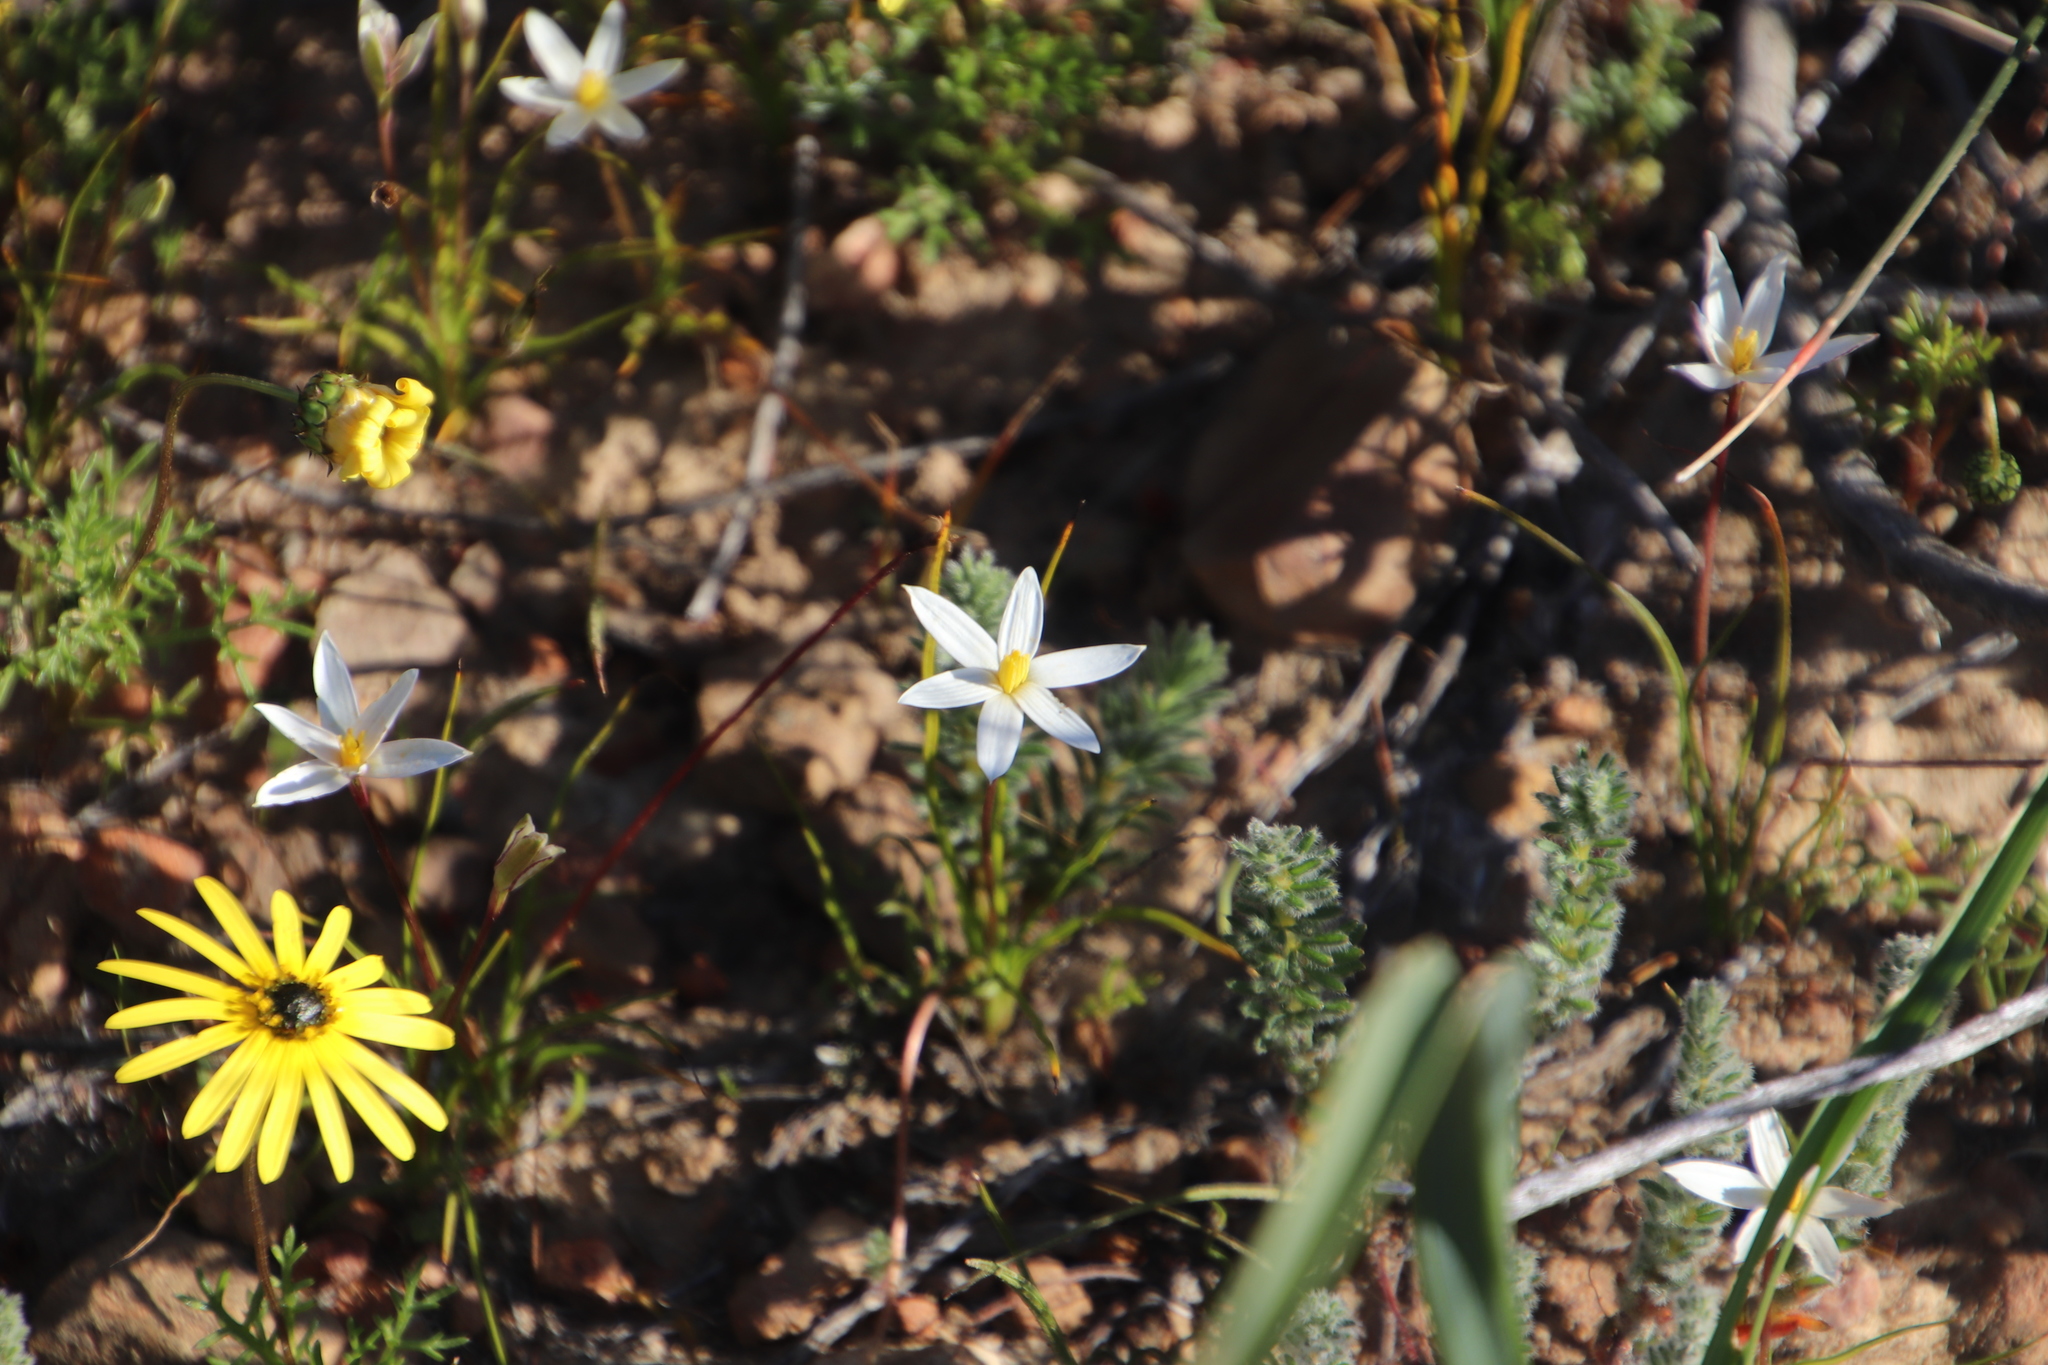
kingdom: Plantae
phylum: Tracheophyta
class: Liliopsida
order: Asparagales
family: Hypoxidaceae
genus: Pauridia
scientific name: Pauridia serrata
